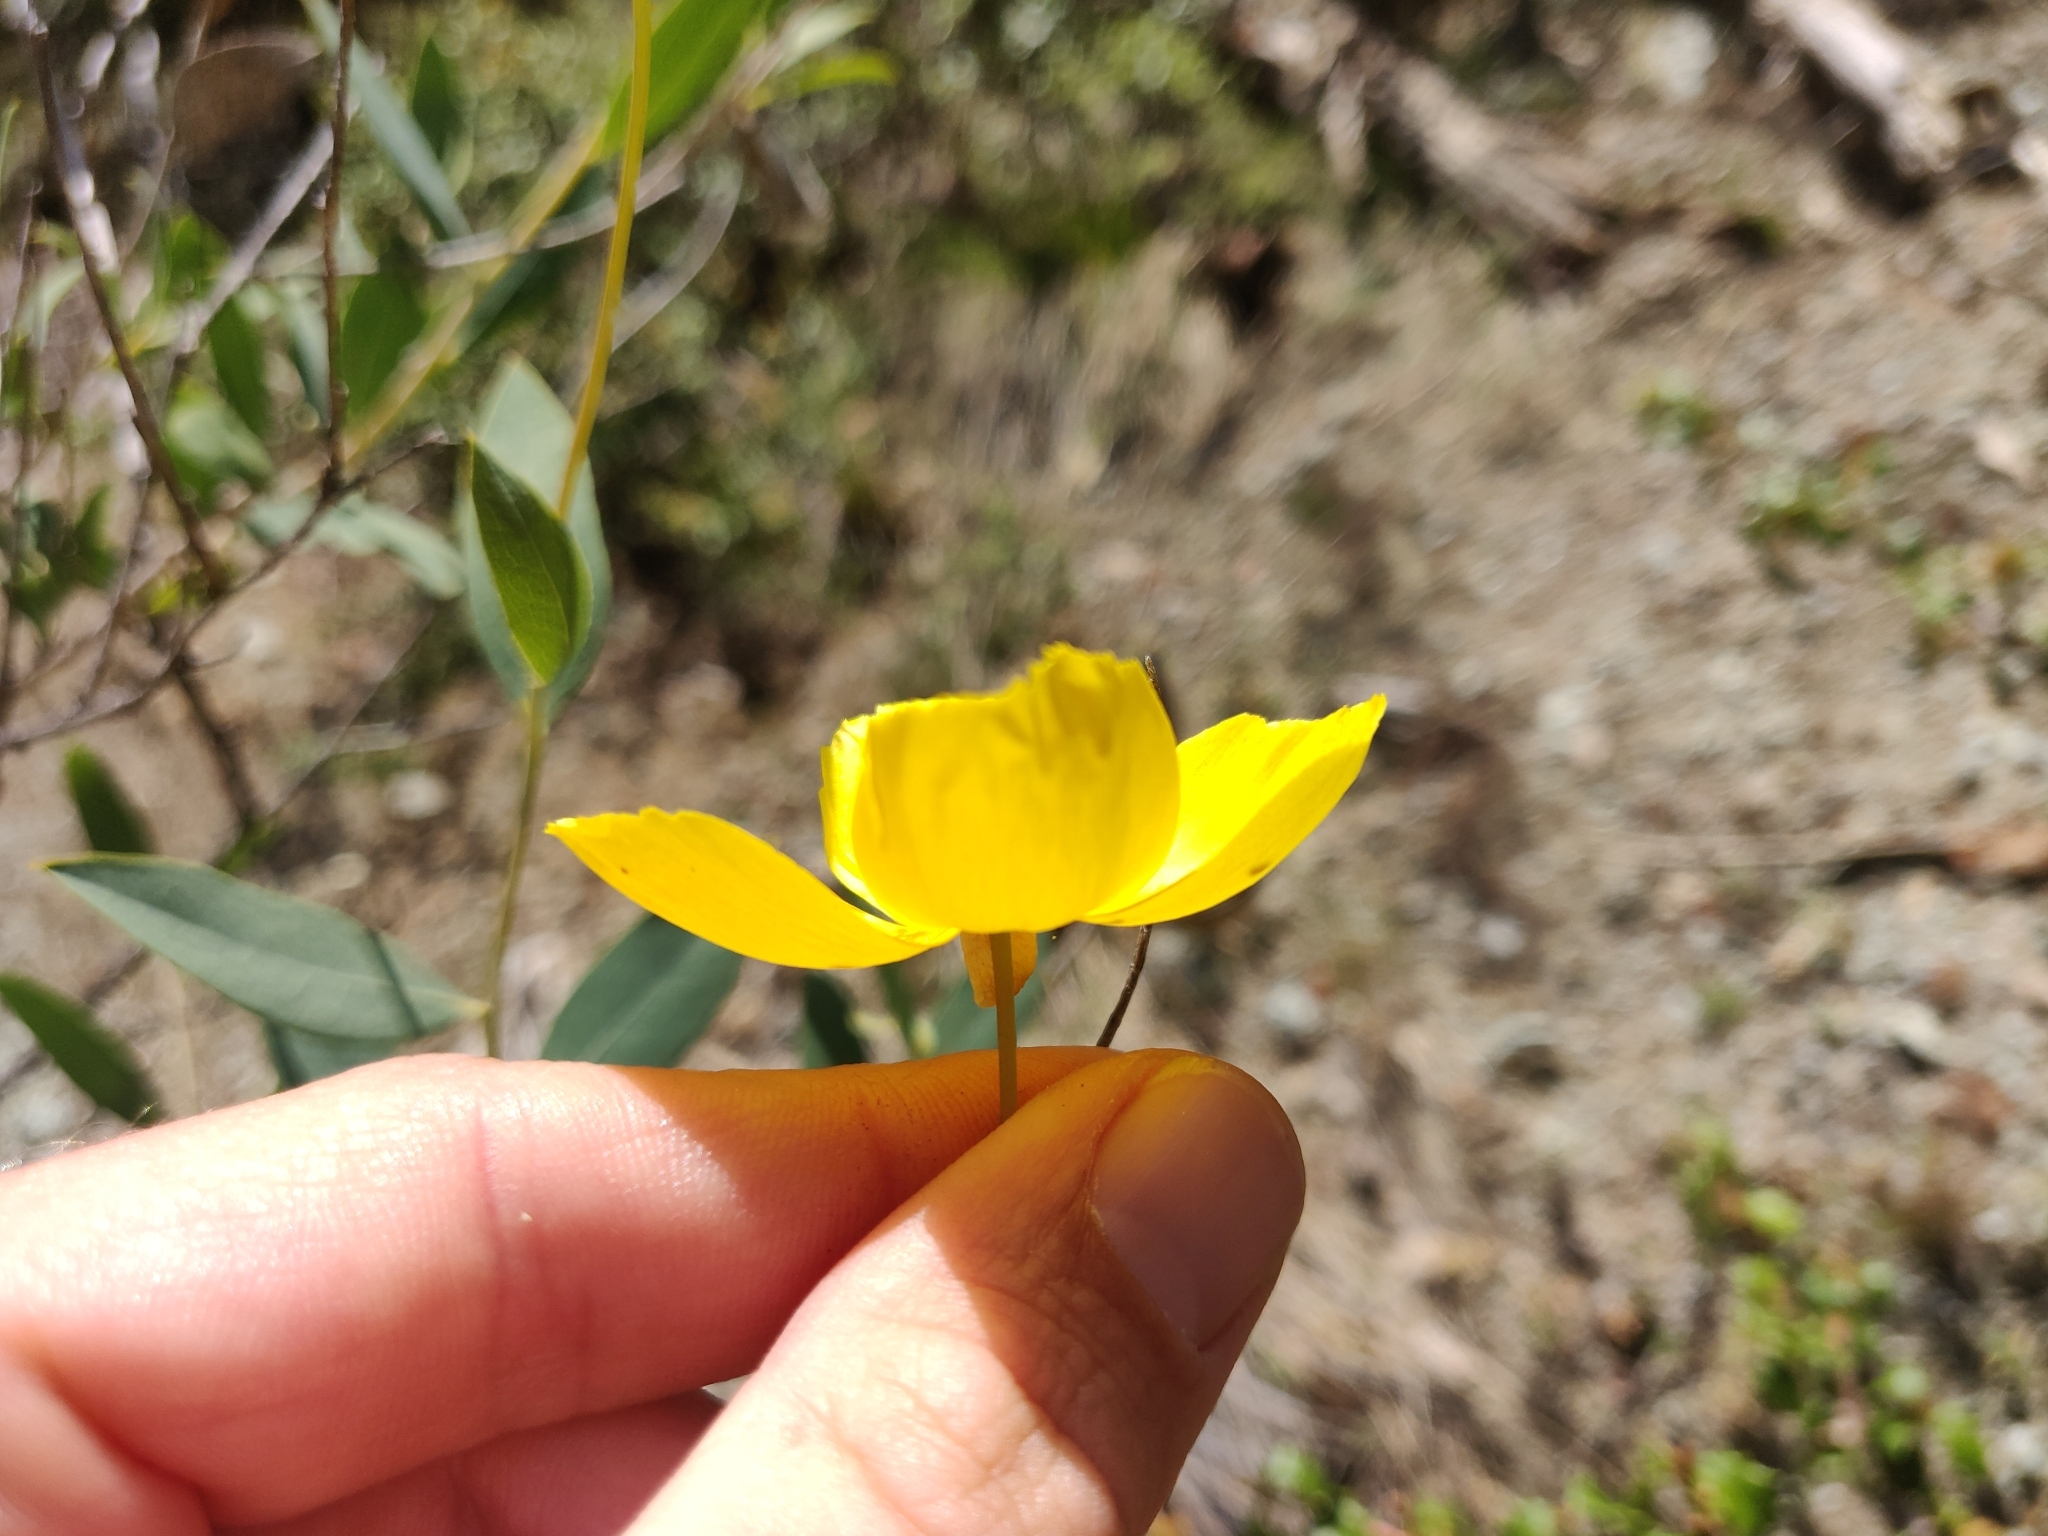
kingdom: Plantae
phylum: Tracheophyta
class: Magnoliopsida
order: Ranunculales
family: Papaveraceae
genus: Dendromecon
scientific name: Dendromecon rigida
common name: Tree poppy
